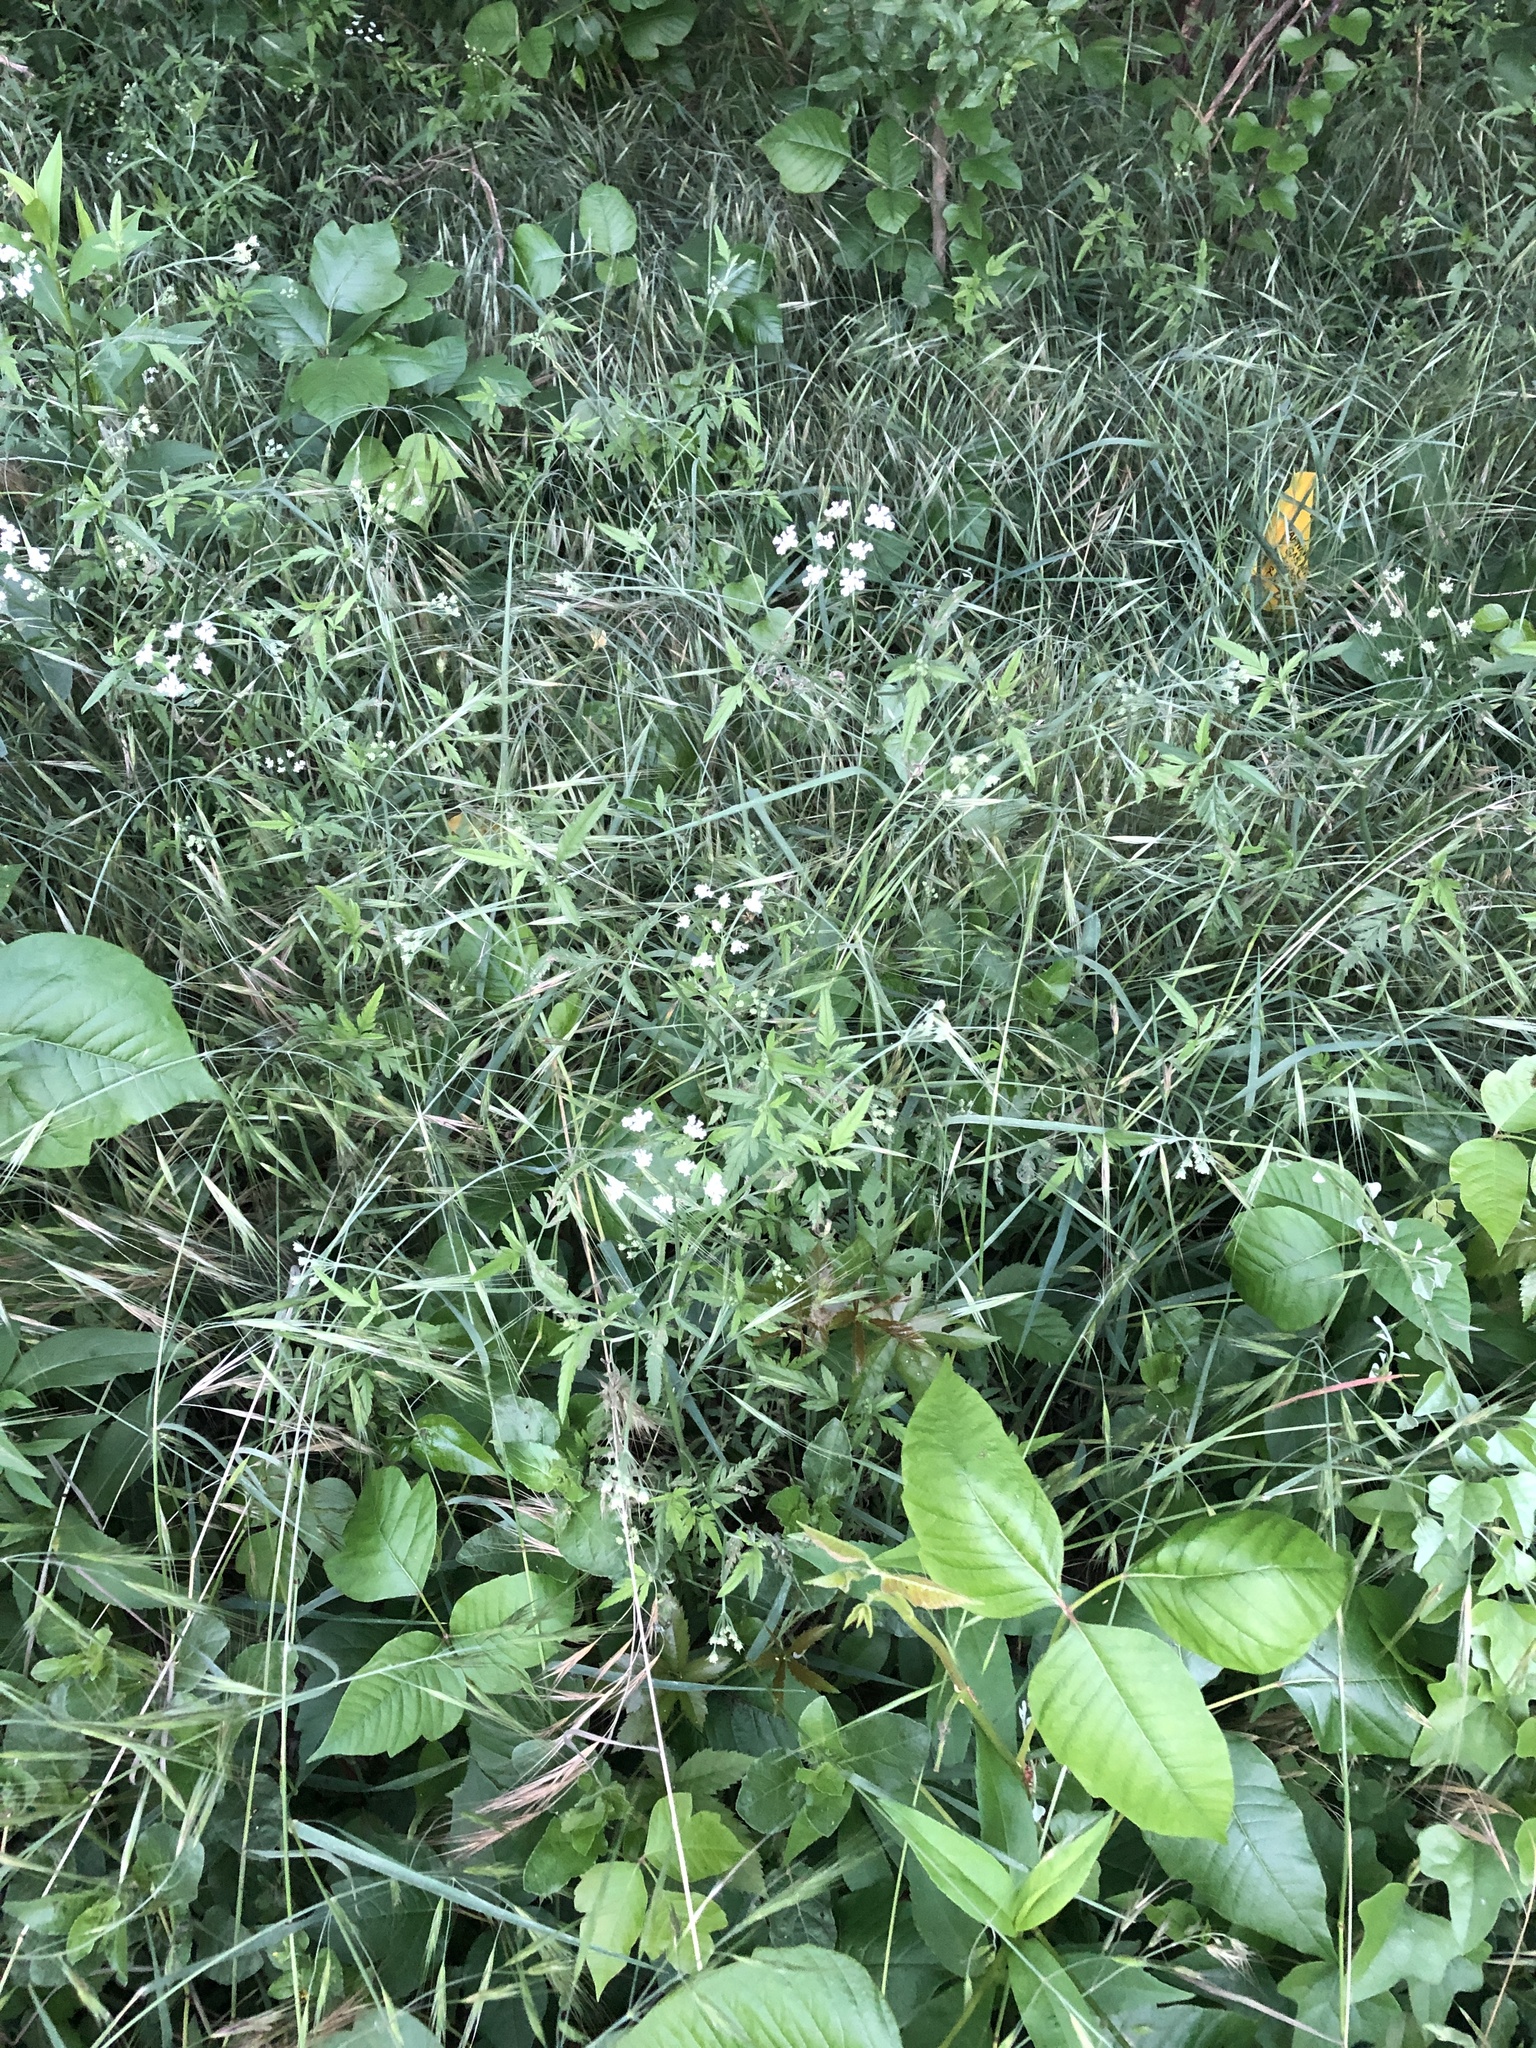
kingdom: Plantae
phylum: Tracheophyta
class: Magnoliopsida
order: Apiales
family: Apiaceae
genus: Torilis
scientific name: Torilis arvensis
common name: Spreading hedge-parsley
